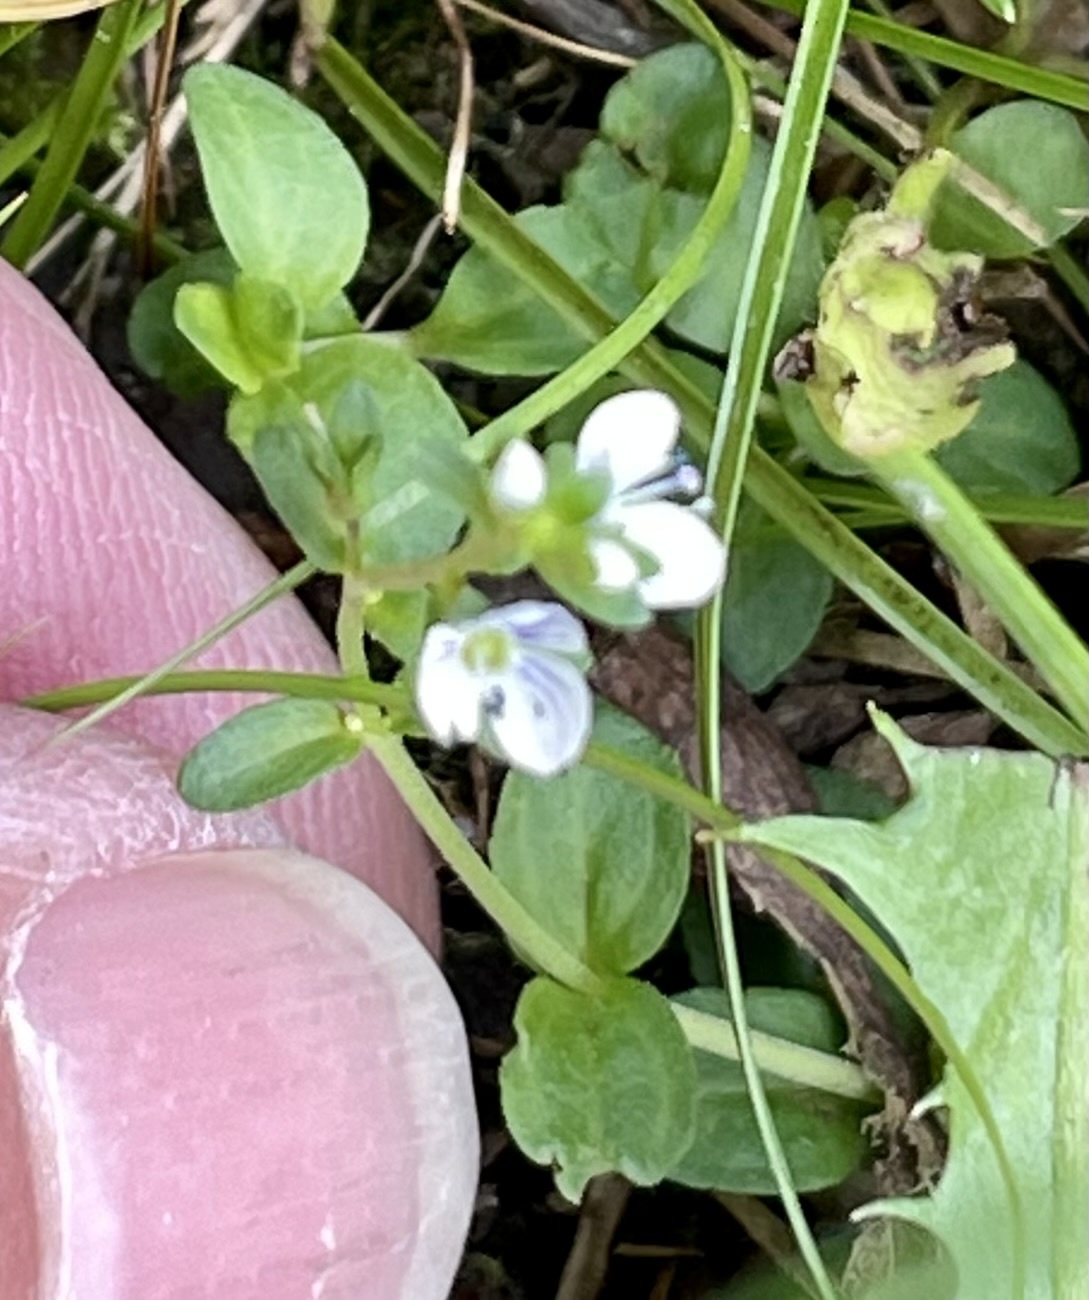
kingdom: Plantae
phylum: Tracheophyta
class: Magnoliopsida
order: Lamiales
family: Plantaginaceae
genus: Veronica
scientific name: Veronica serpyllifolia
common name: Thyme-leaved speedwell
